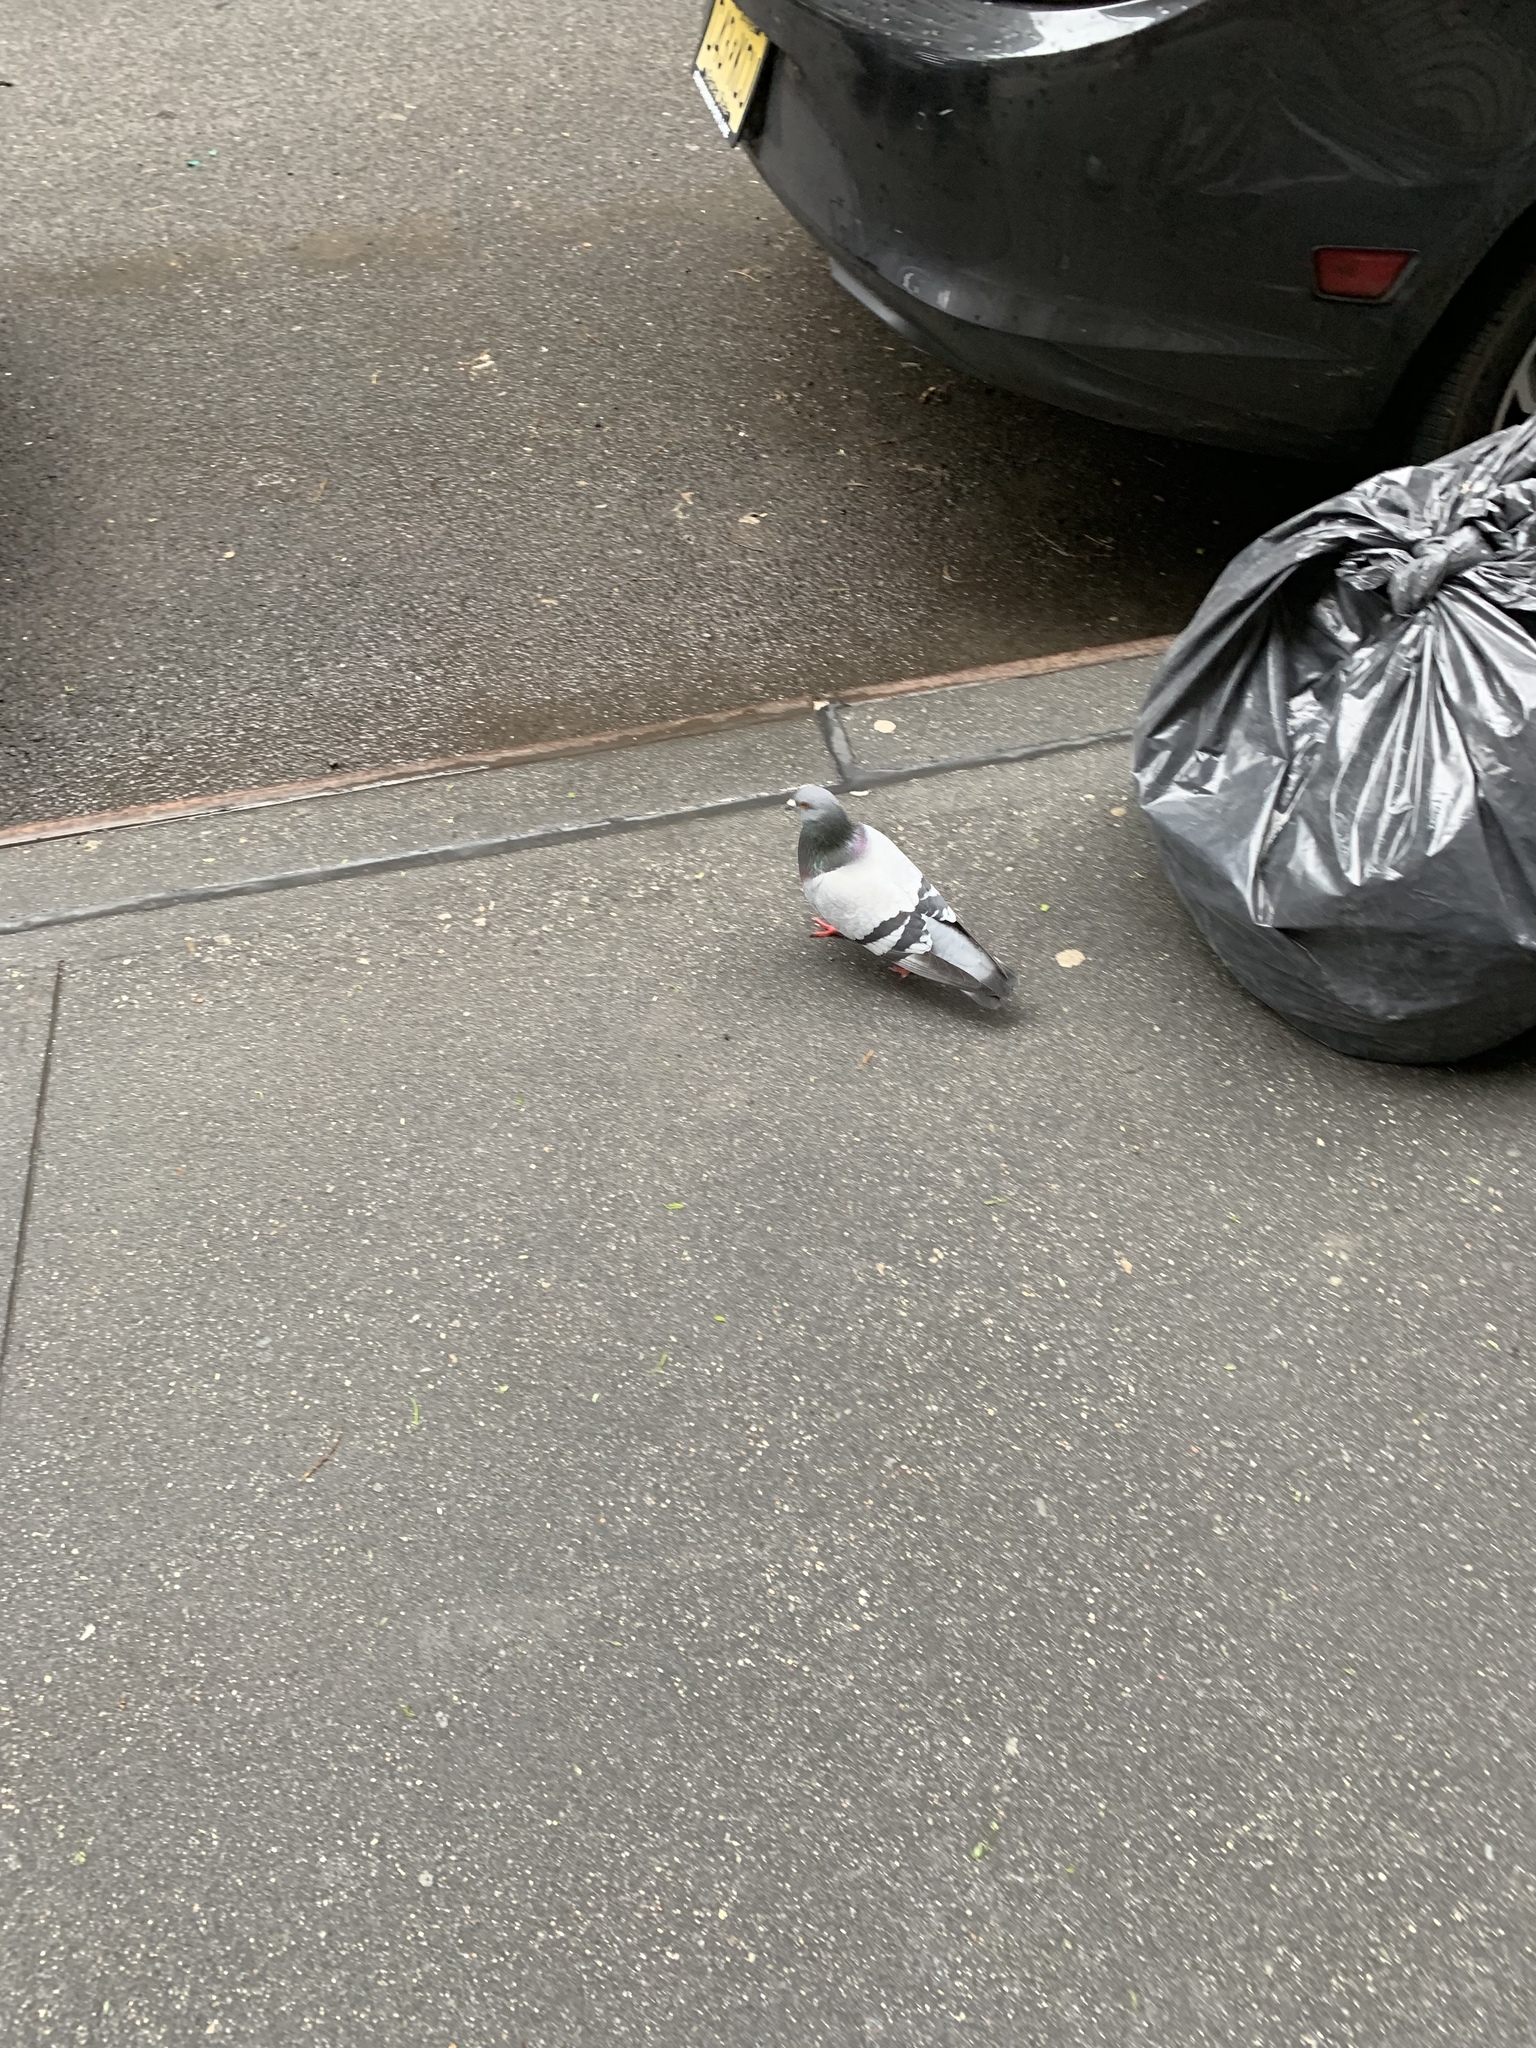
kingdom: Animalia
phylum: Chordata
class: Aves
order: Columbiformes
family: Columbidae
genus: Columba
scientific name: Columba livia
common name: Rock pigeon
